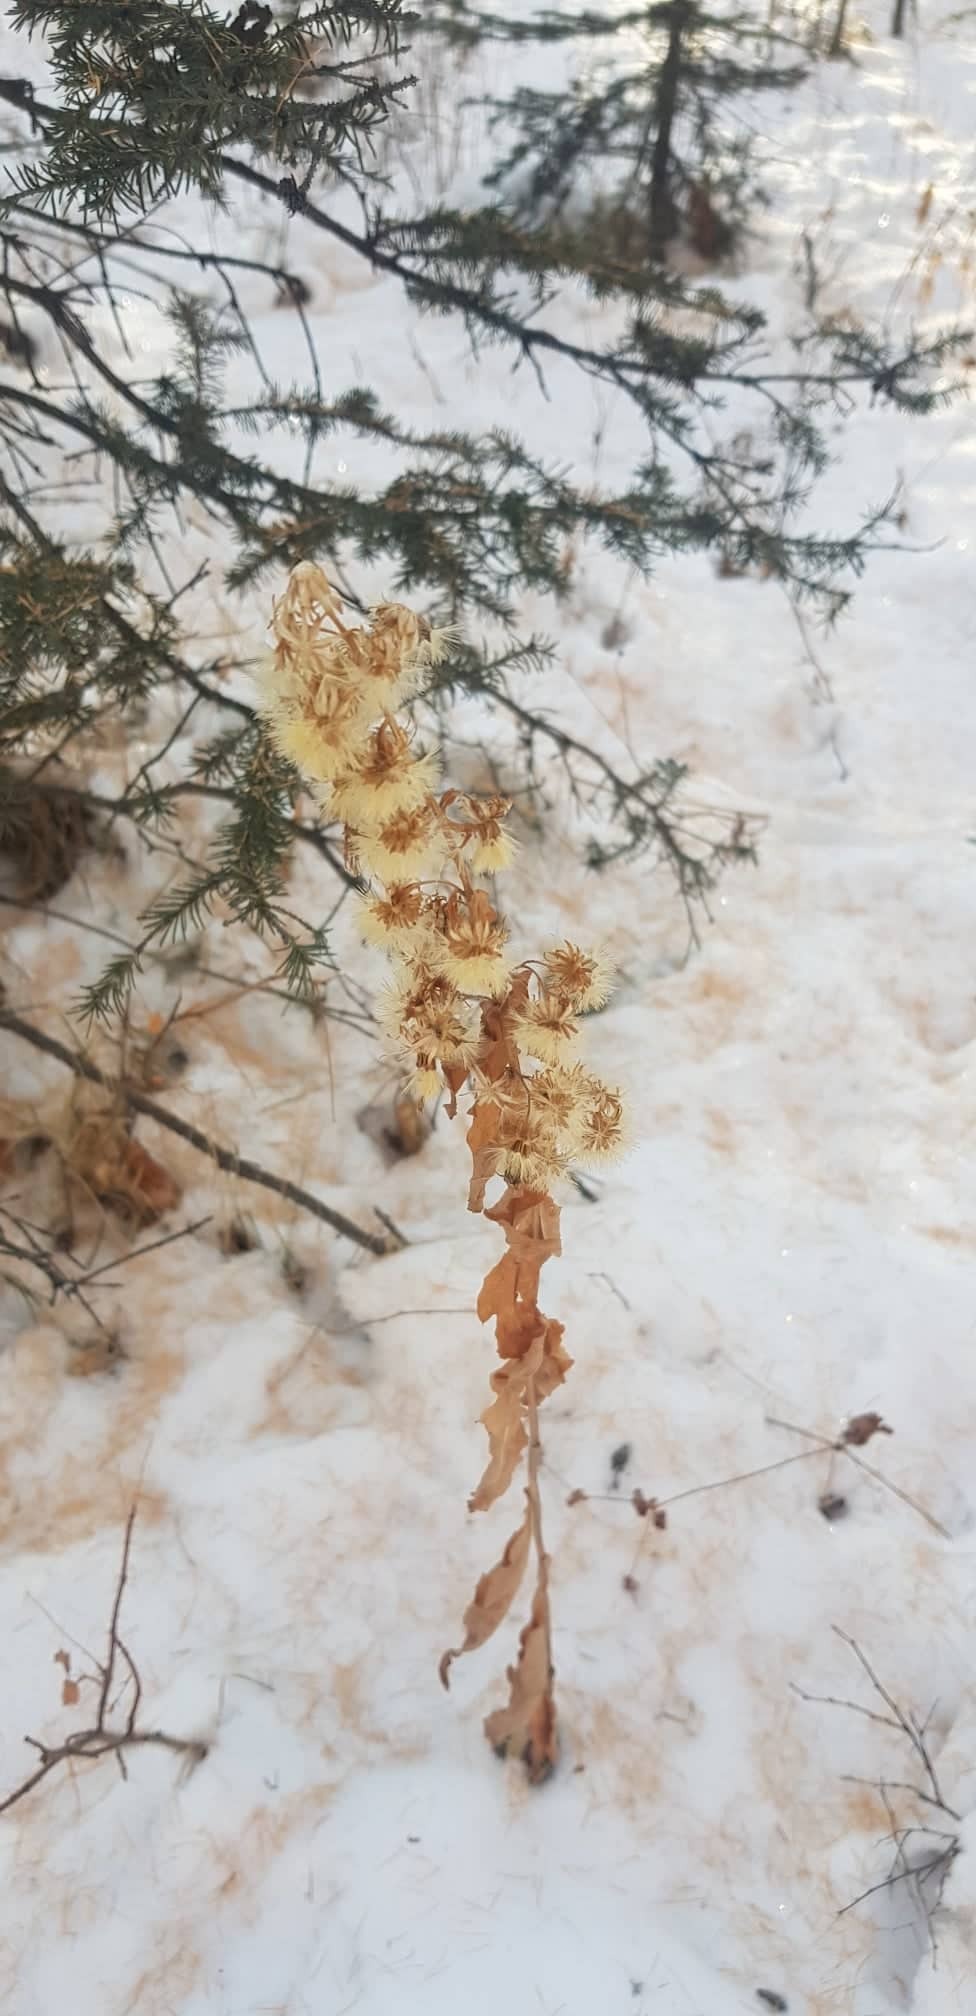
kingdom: Plantae
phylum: Tracheophyta
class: Magnoliopsida
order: Asterales
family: Asteraceae
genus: Solidago
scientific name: Solidago dahurica
